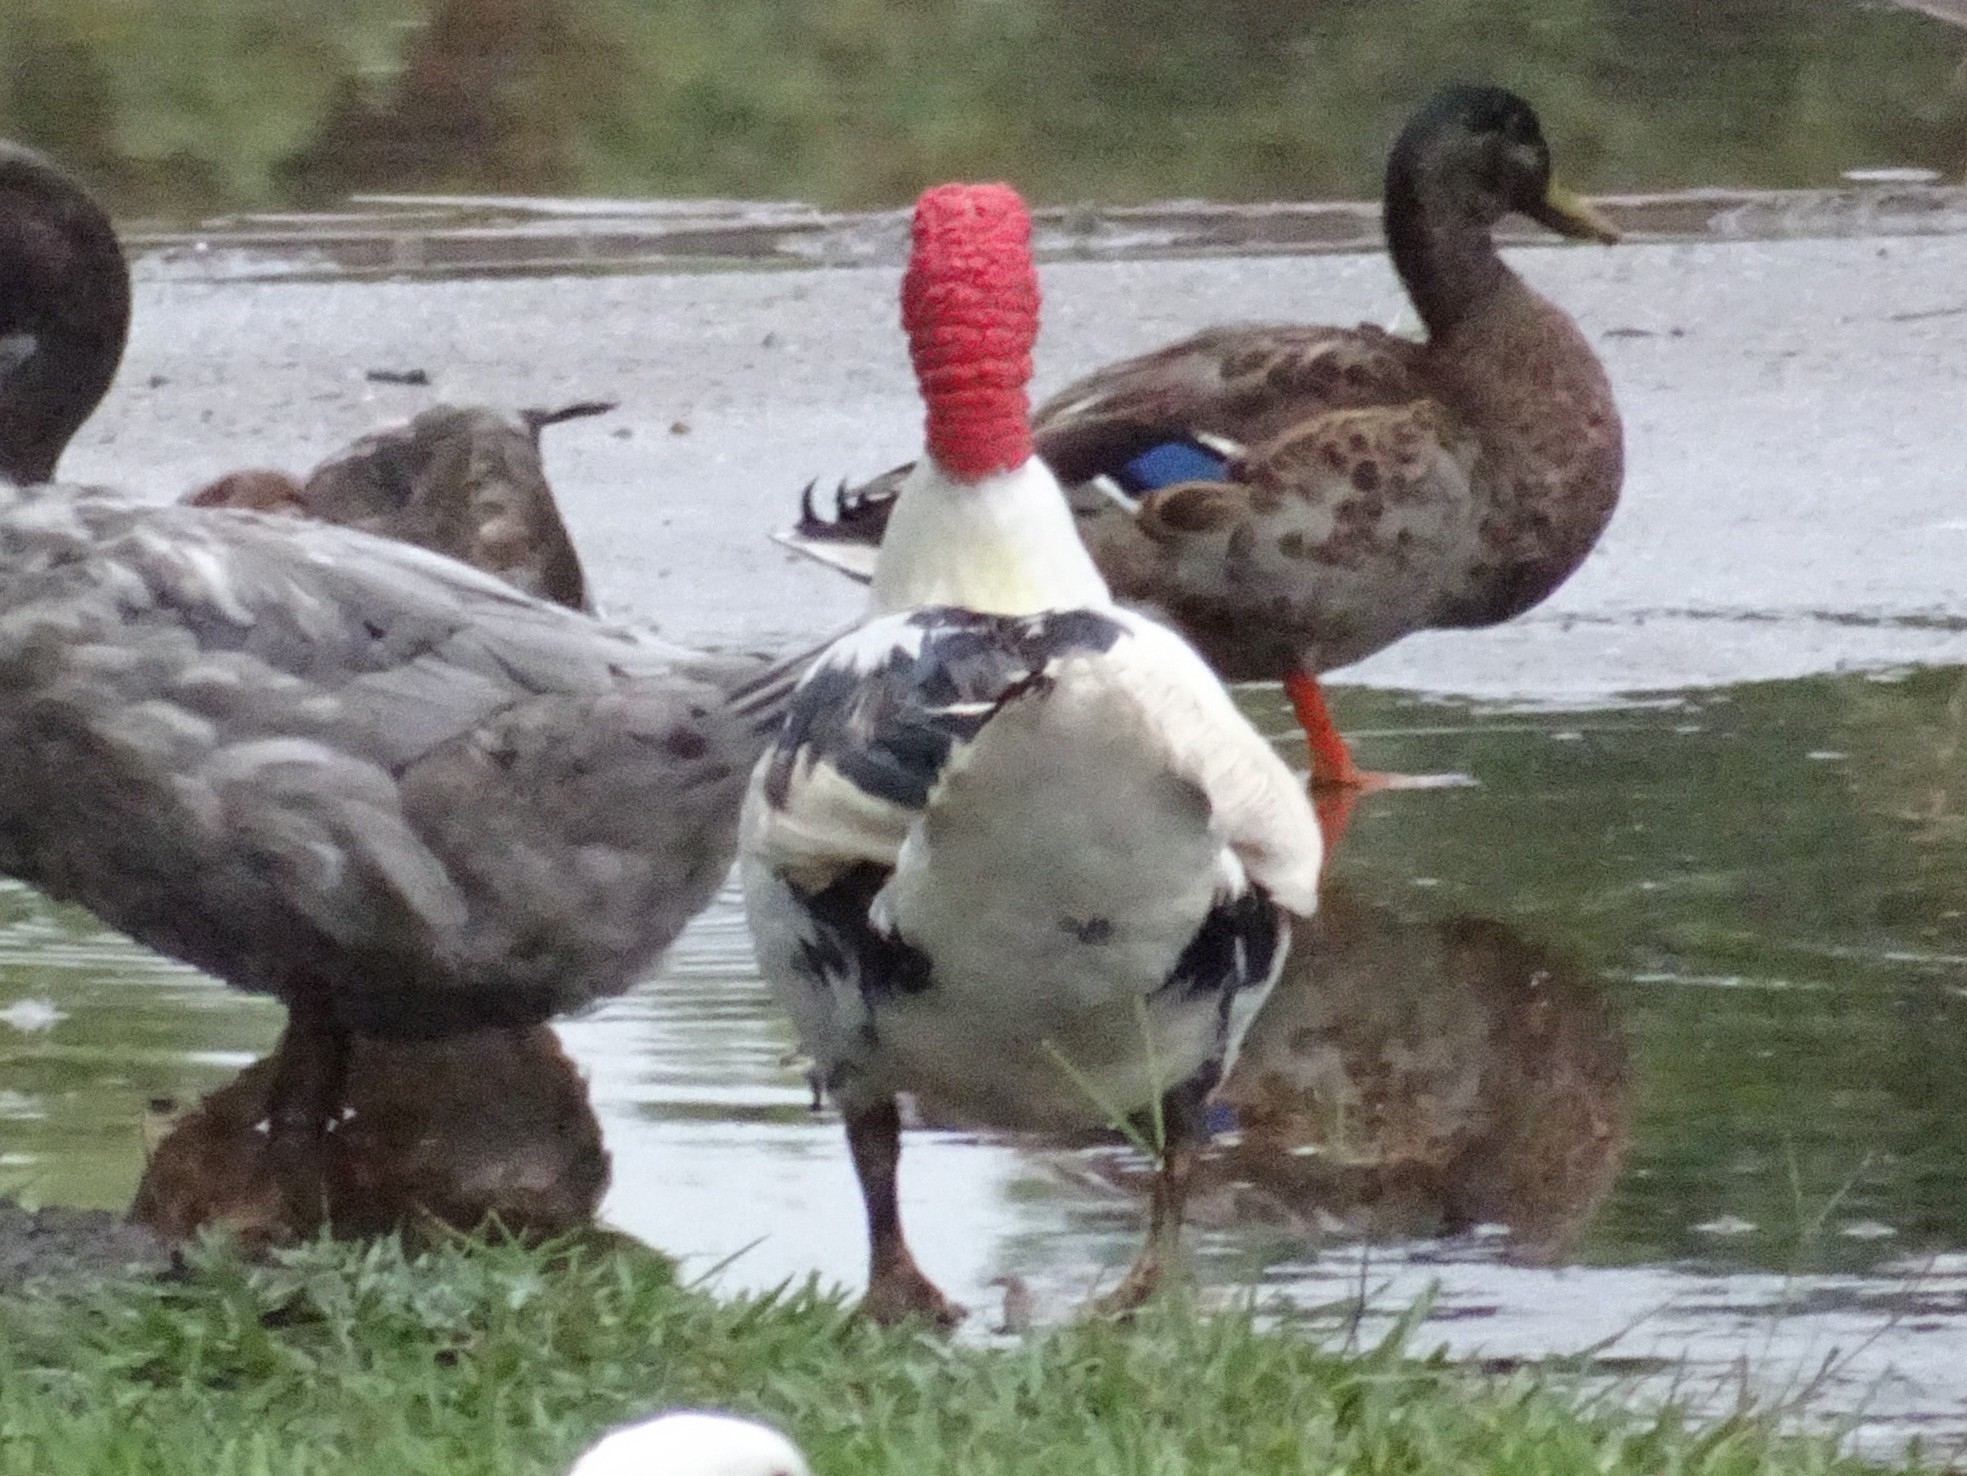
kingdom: Animalia
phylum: Chordata
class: Aves
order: Anseriformes
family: Anatidae
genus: Cairina
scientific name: Cairina moschata
